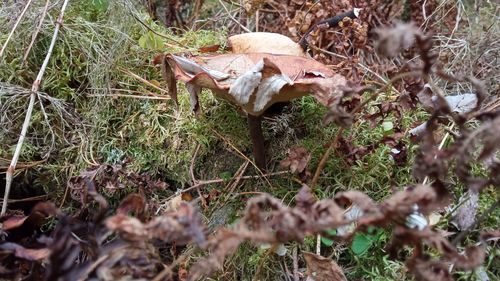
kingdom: Fungi
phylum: Basidiomycota
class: Agaricomycetes
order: Polyporales
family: Polyporaceae
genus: Picipes
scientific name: Picipes tubaeformis
